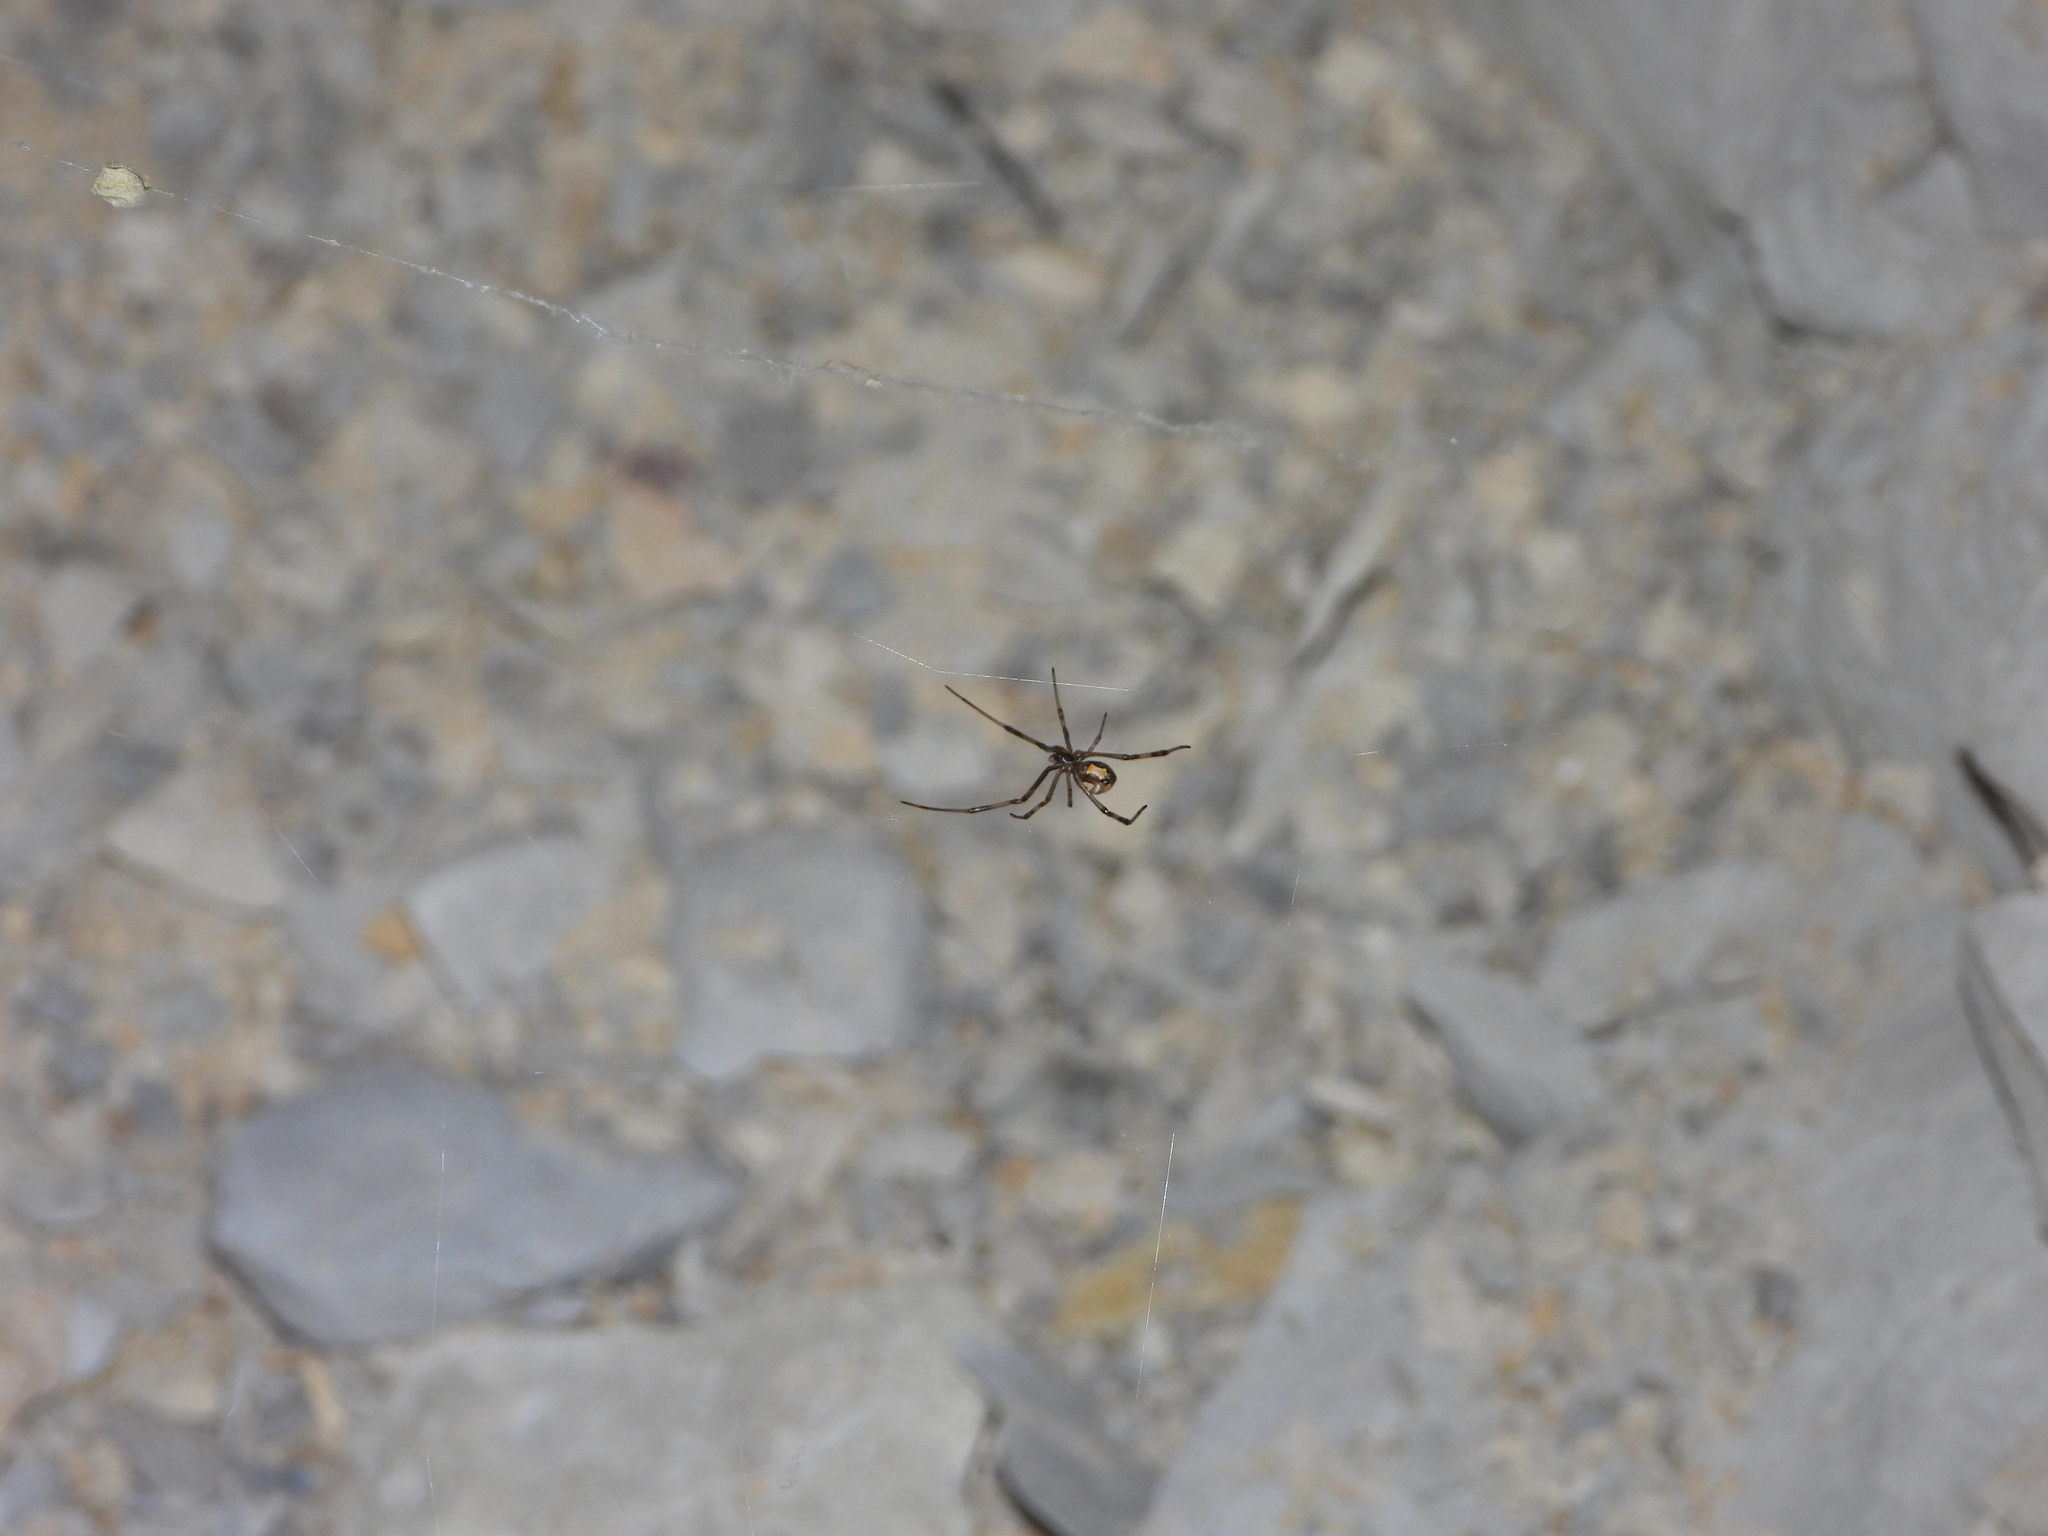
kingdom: Animalia
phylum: Arthropoda
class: Arachnida
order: Araneae
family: Theridiidae
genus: Latrodectus
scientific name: Latrodectus hesperus
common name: Western black widow
